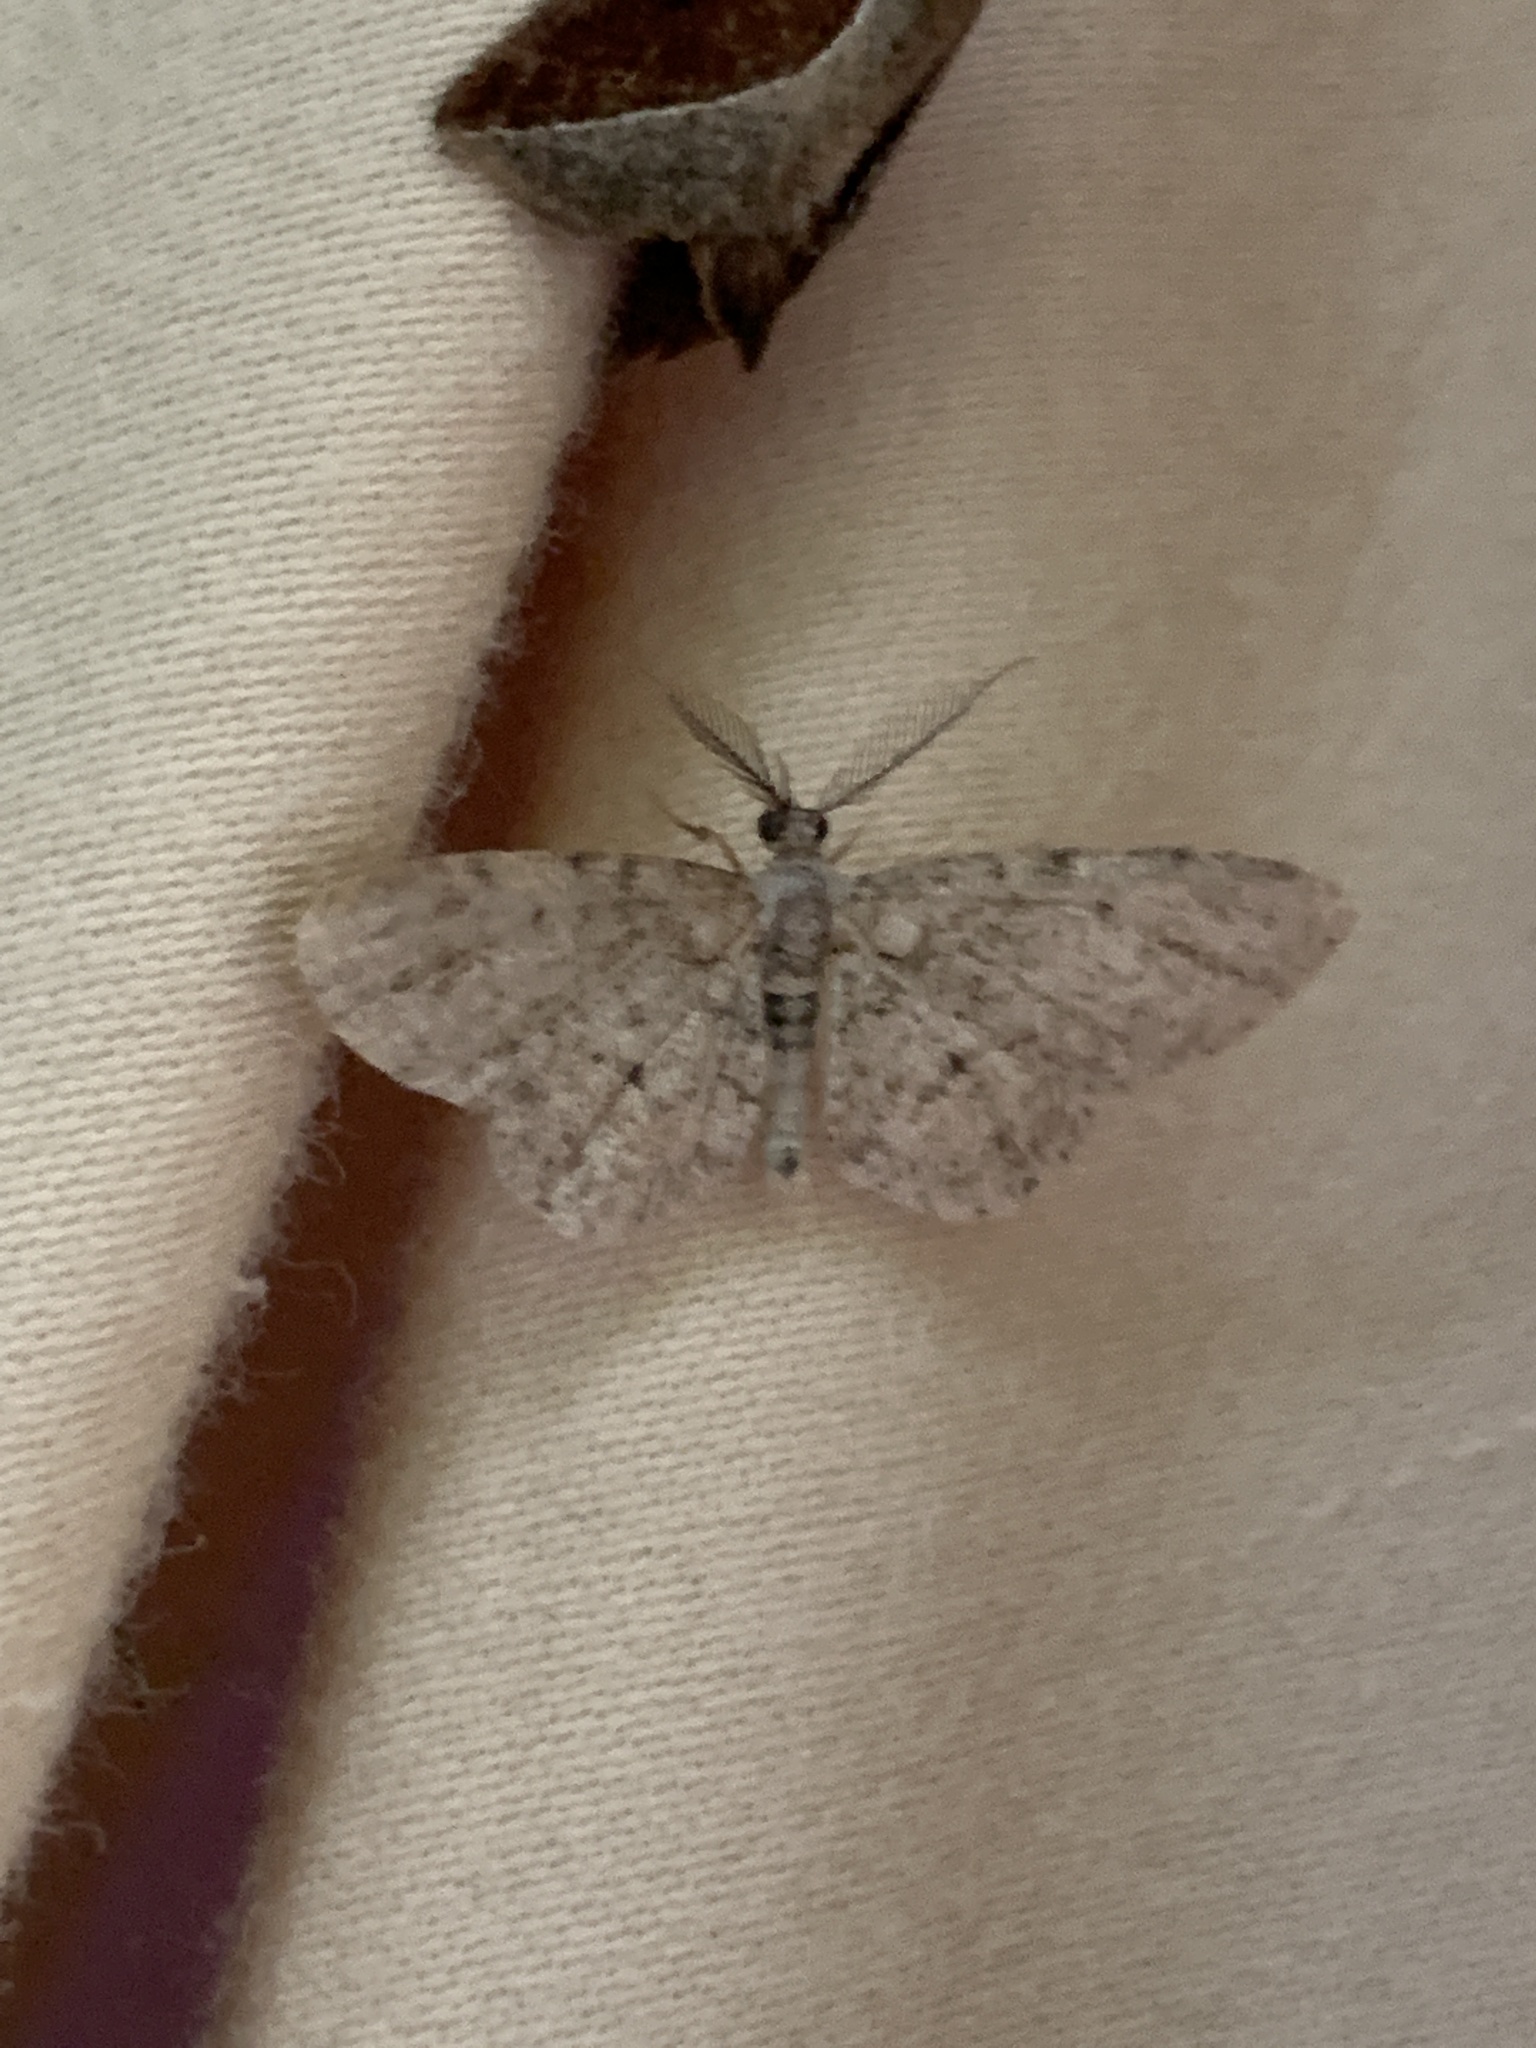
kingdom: Animalia
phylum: Arthropoda
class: Insecta
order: Lepidoptera
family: Geometridae
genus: Glenoides
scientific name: Glenoides texanaria
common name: Texas gray
